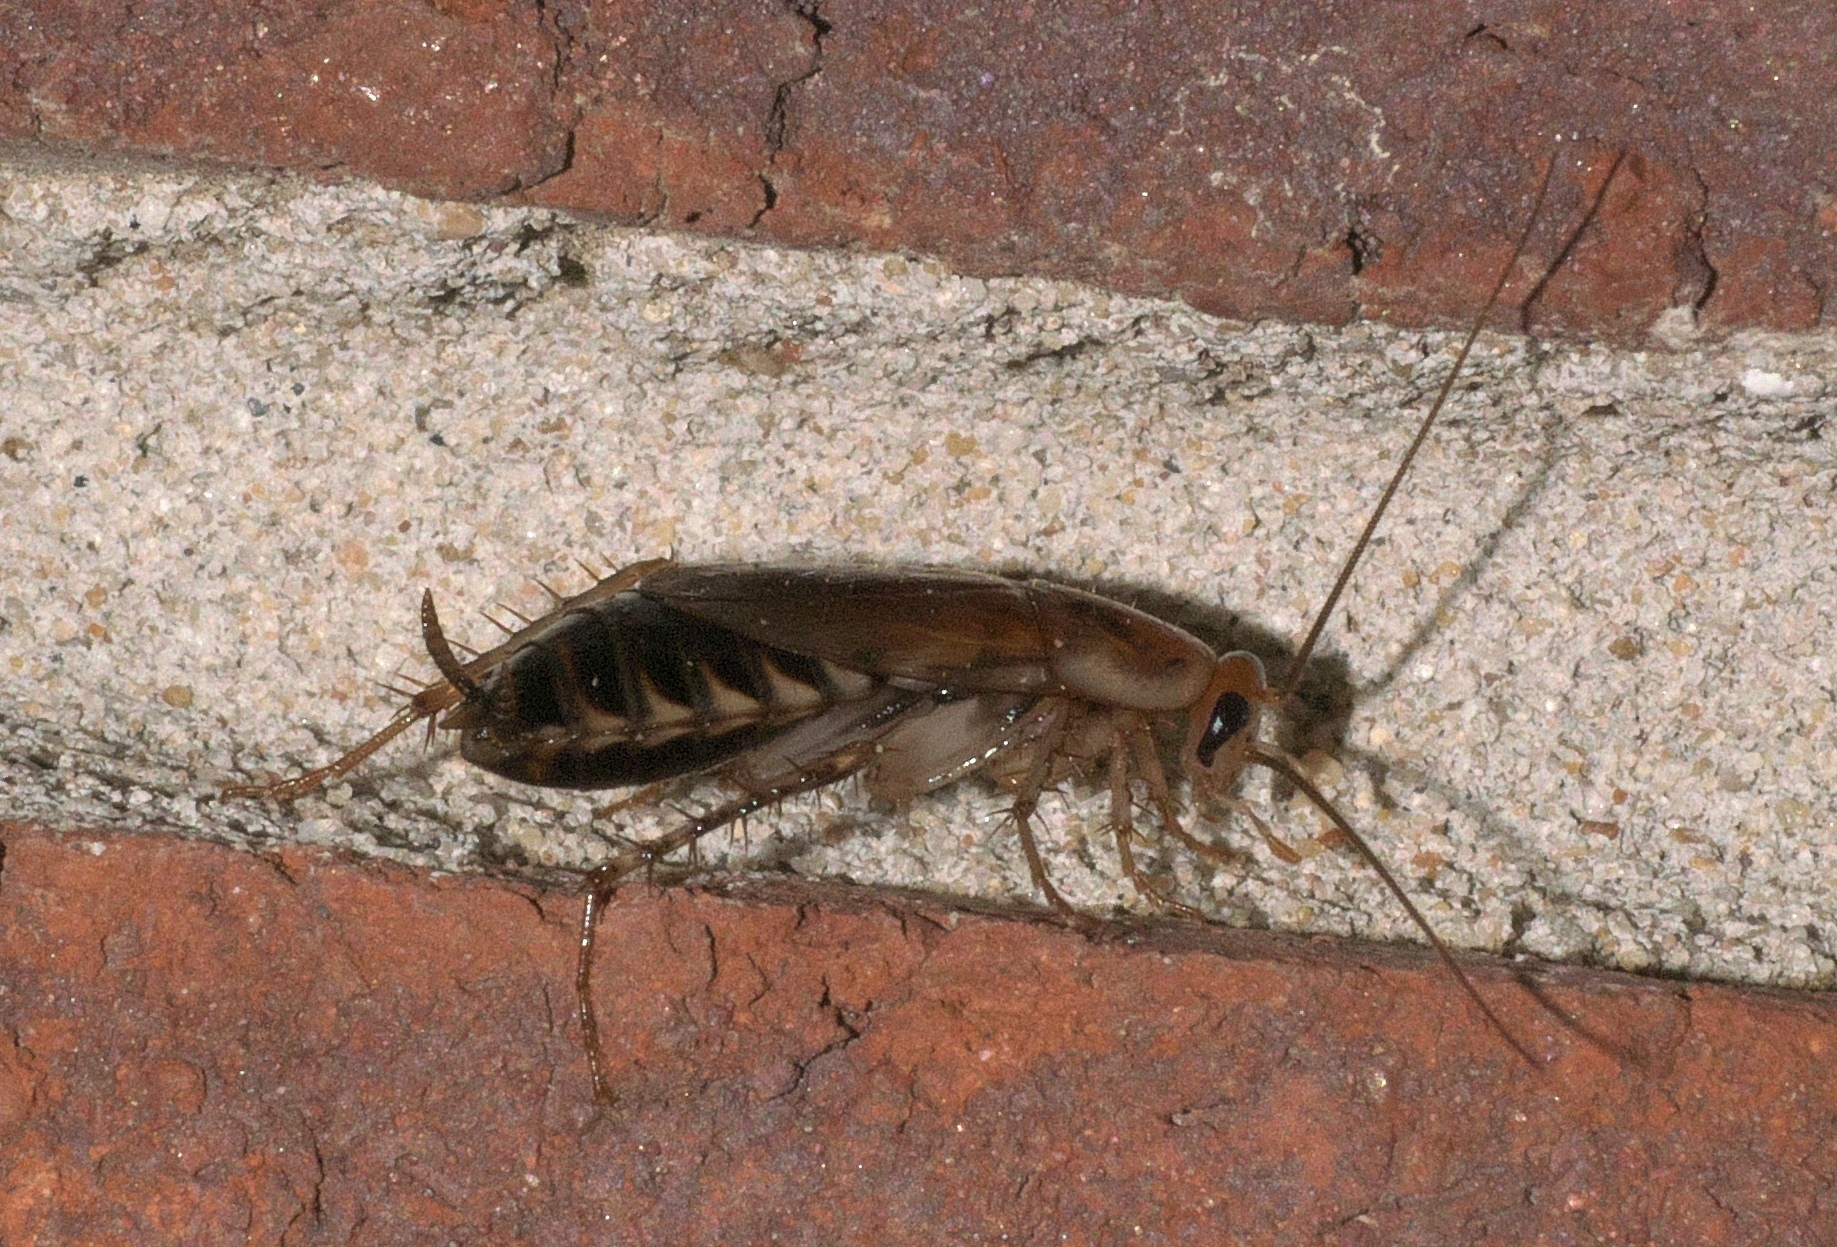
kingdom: Animalia
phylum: Arthropoda
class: Insecta
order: Blattodea
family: Ectobiidae
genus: Parcoblatta
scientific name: Parcoblatta zebra
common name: Banded wood cockroach
